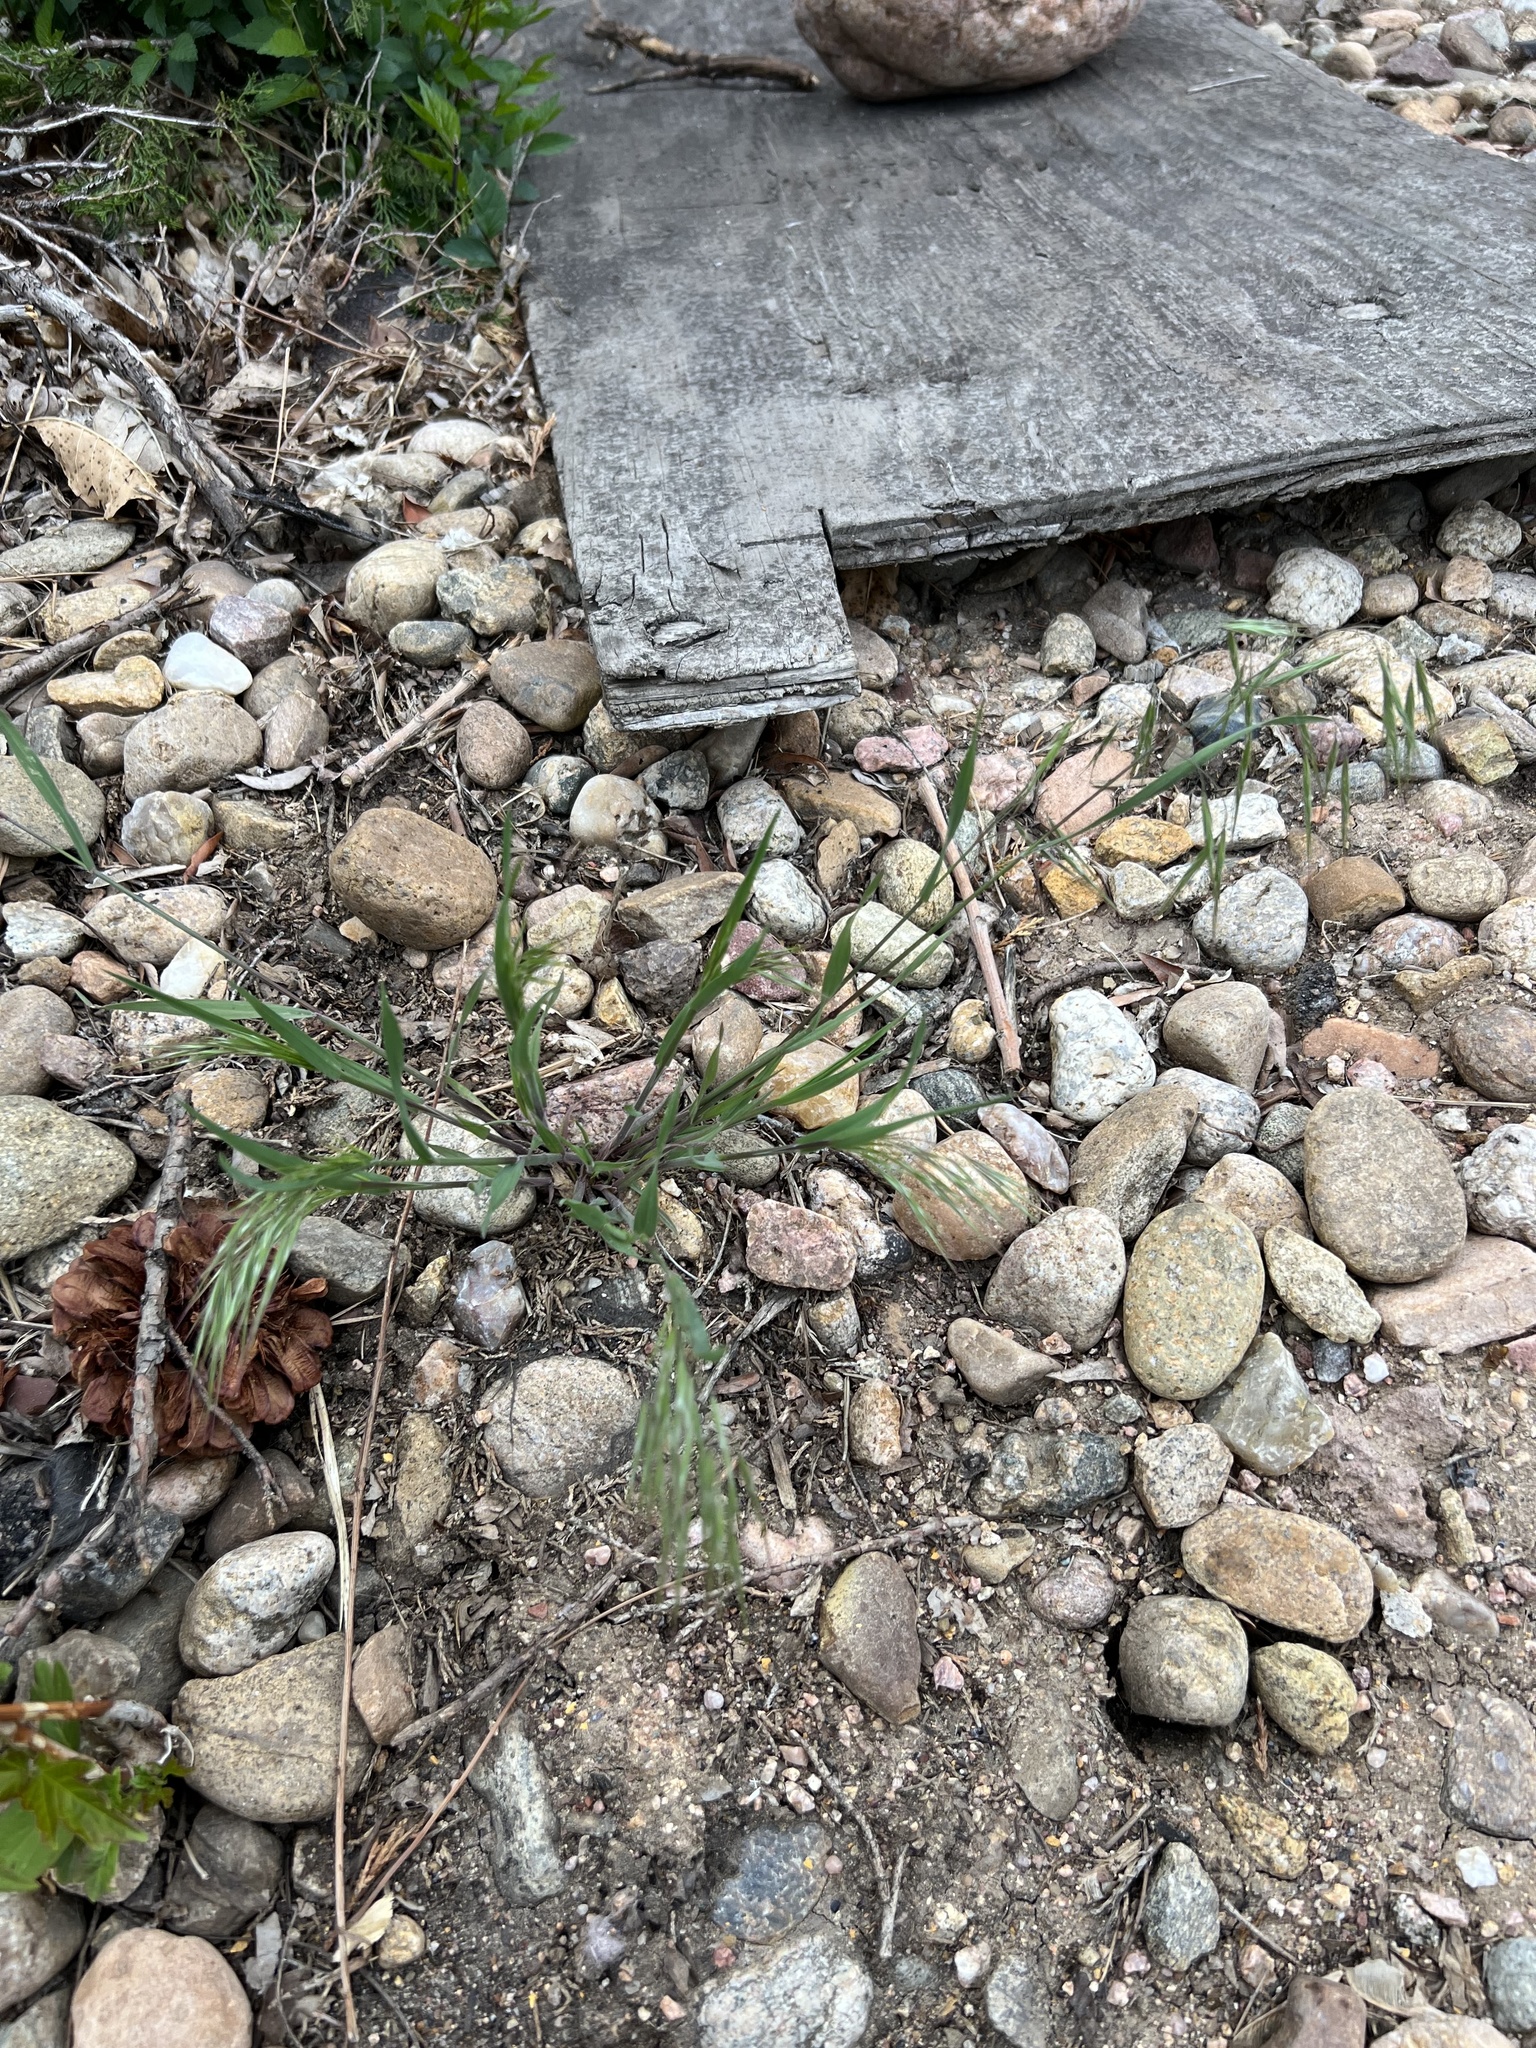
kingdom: Plantae
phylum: Tracheophyta
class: Liliopsida
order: Poales
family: Poaceae
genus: Bromus
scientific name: Bromus tectorum
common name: Cheatgrass
